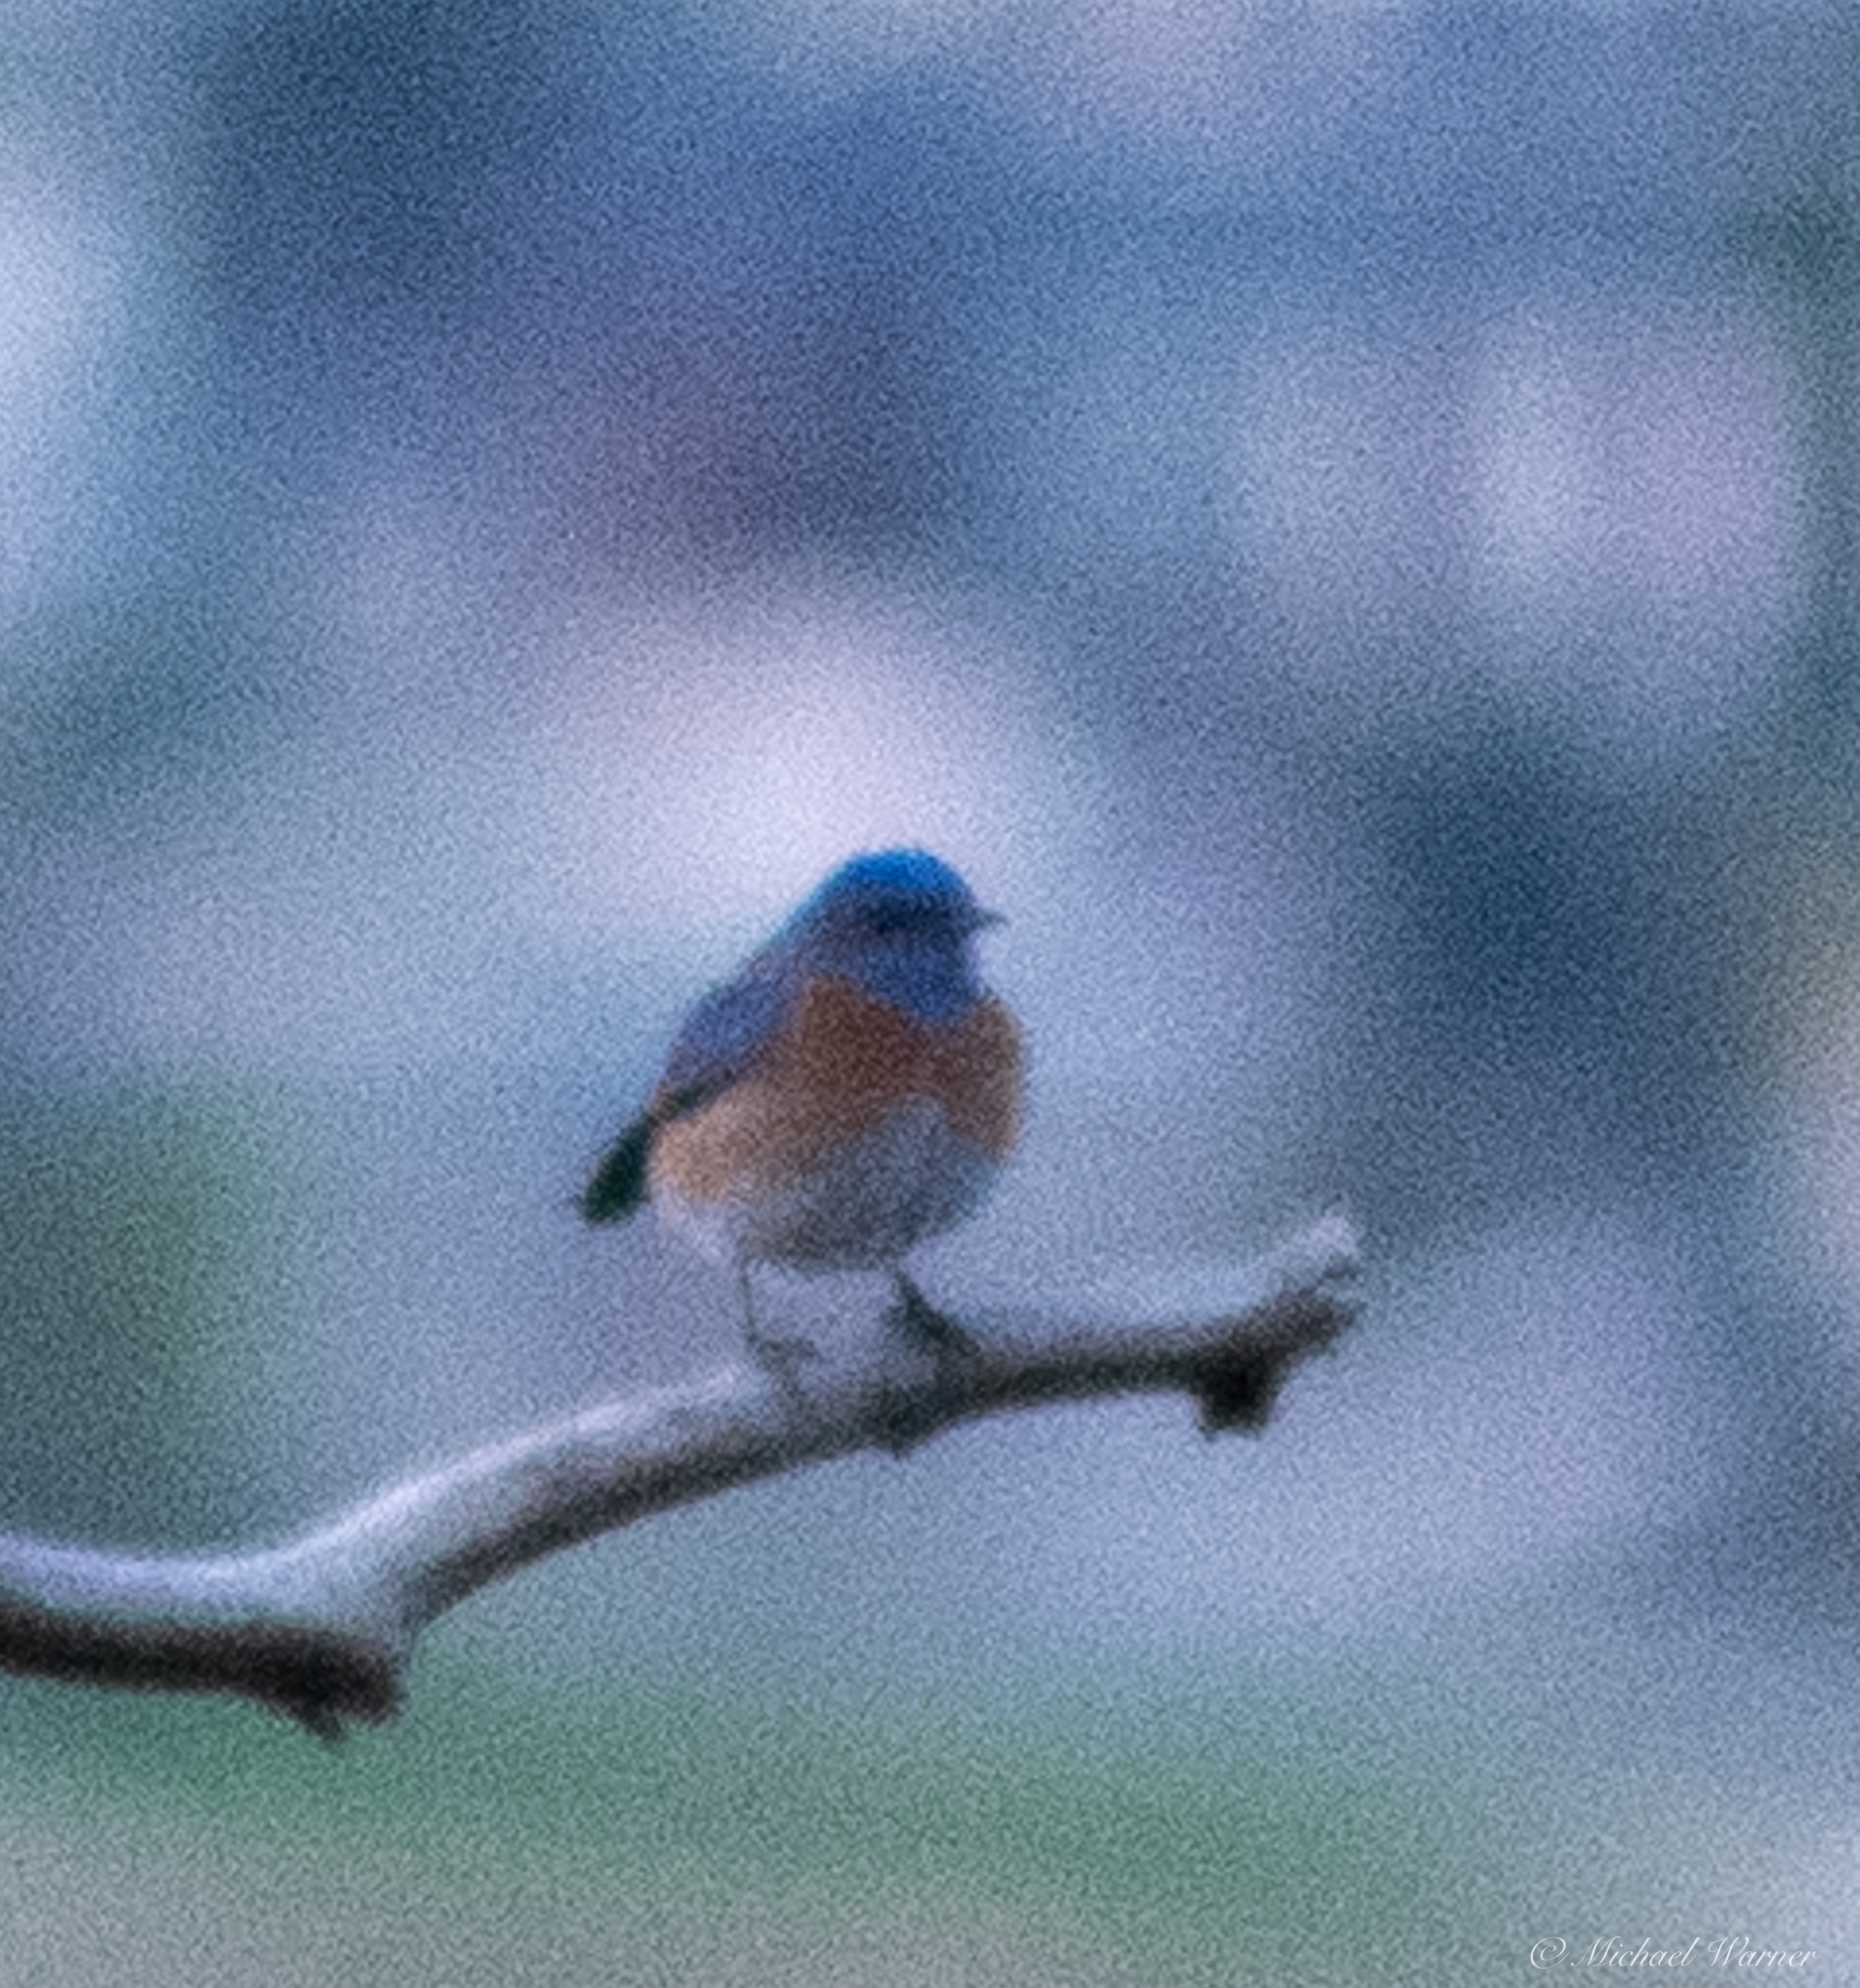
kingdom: Animalia
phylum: Chordata
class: Aves
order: Passeriformes
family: Turdidae
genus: Sialia
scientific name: Sialia mexicana
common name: Western bluebird
